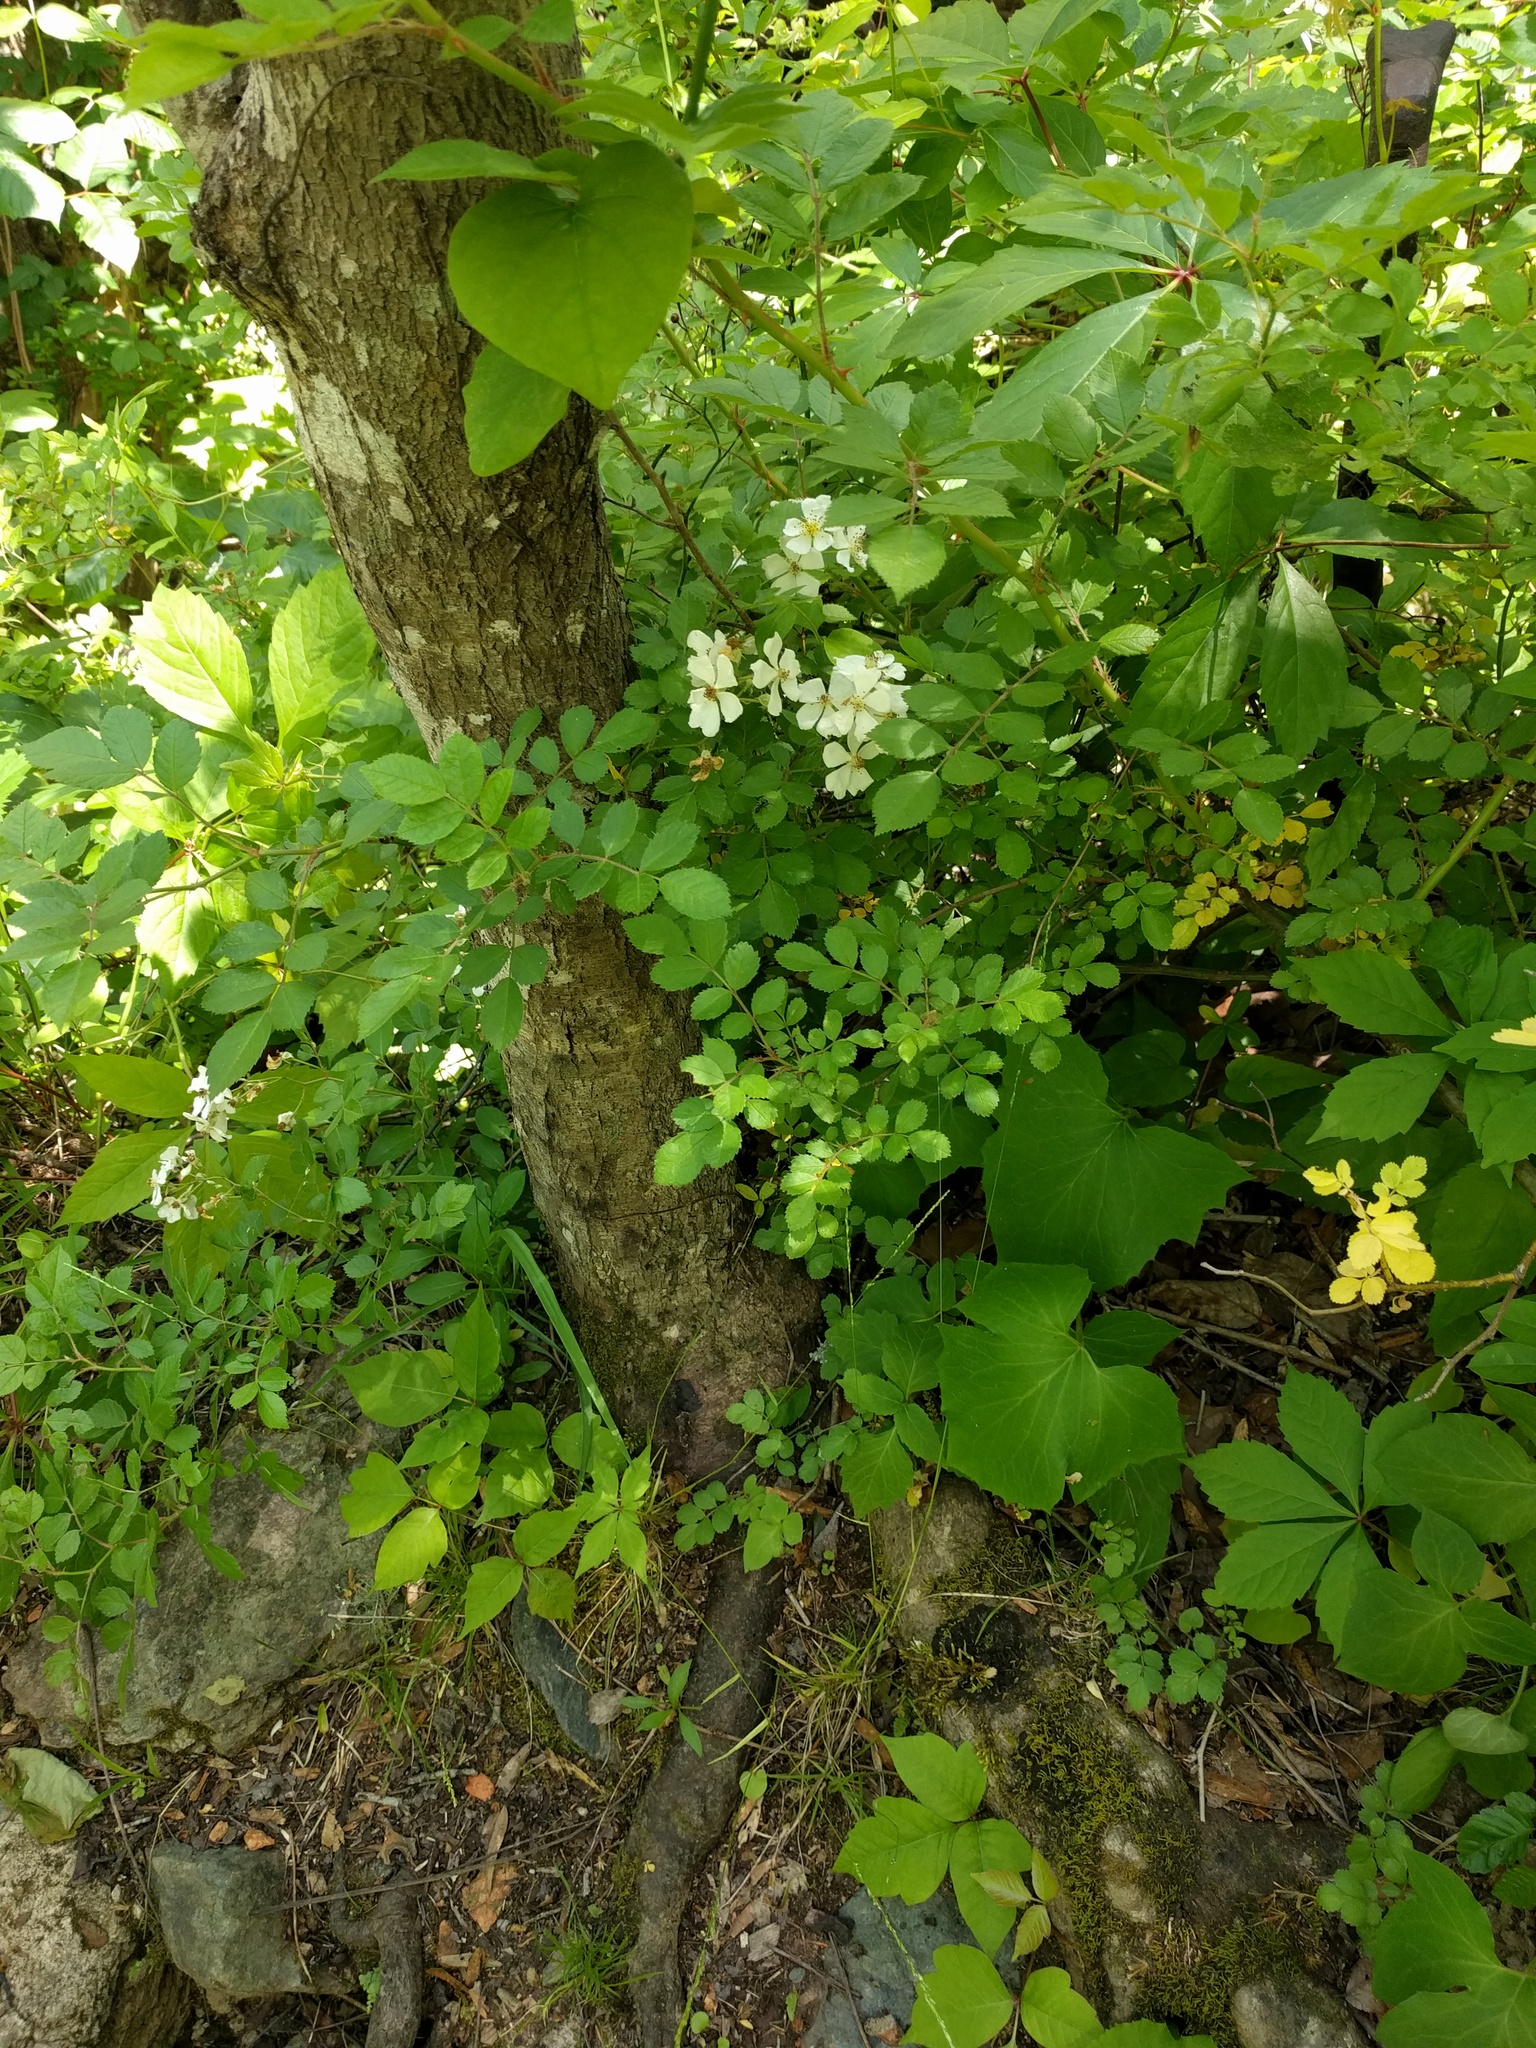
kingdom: Plantae
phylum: Tracheophyta
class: Magnoliopsida
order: Rosales
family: Rosaceae
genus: Rosa
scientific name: Rosa multiflora
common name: Multiflora rose
